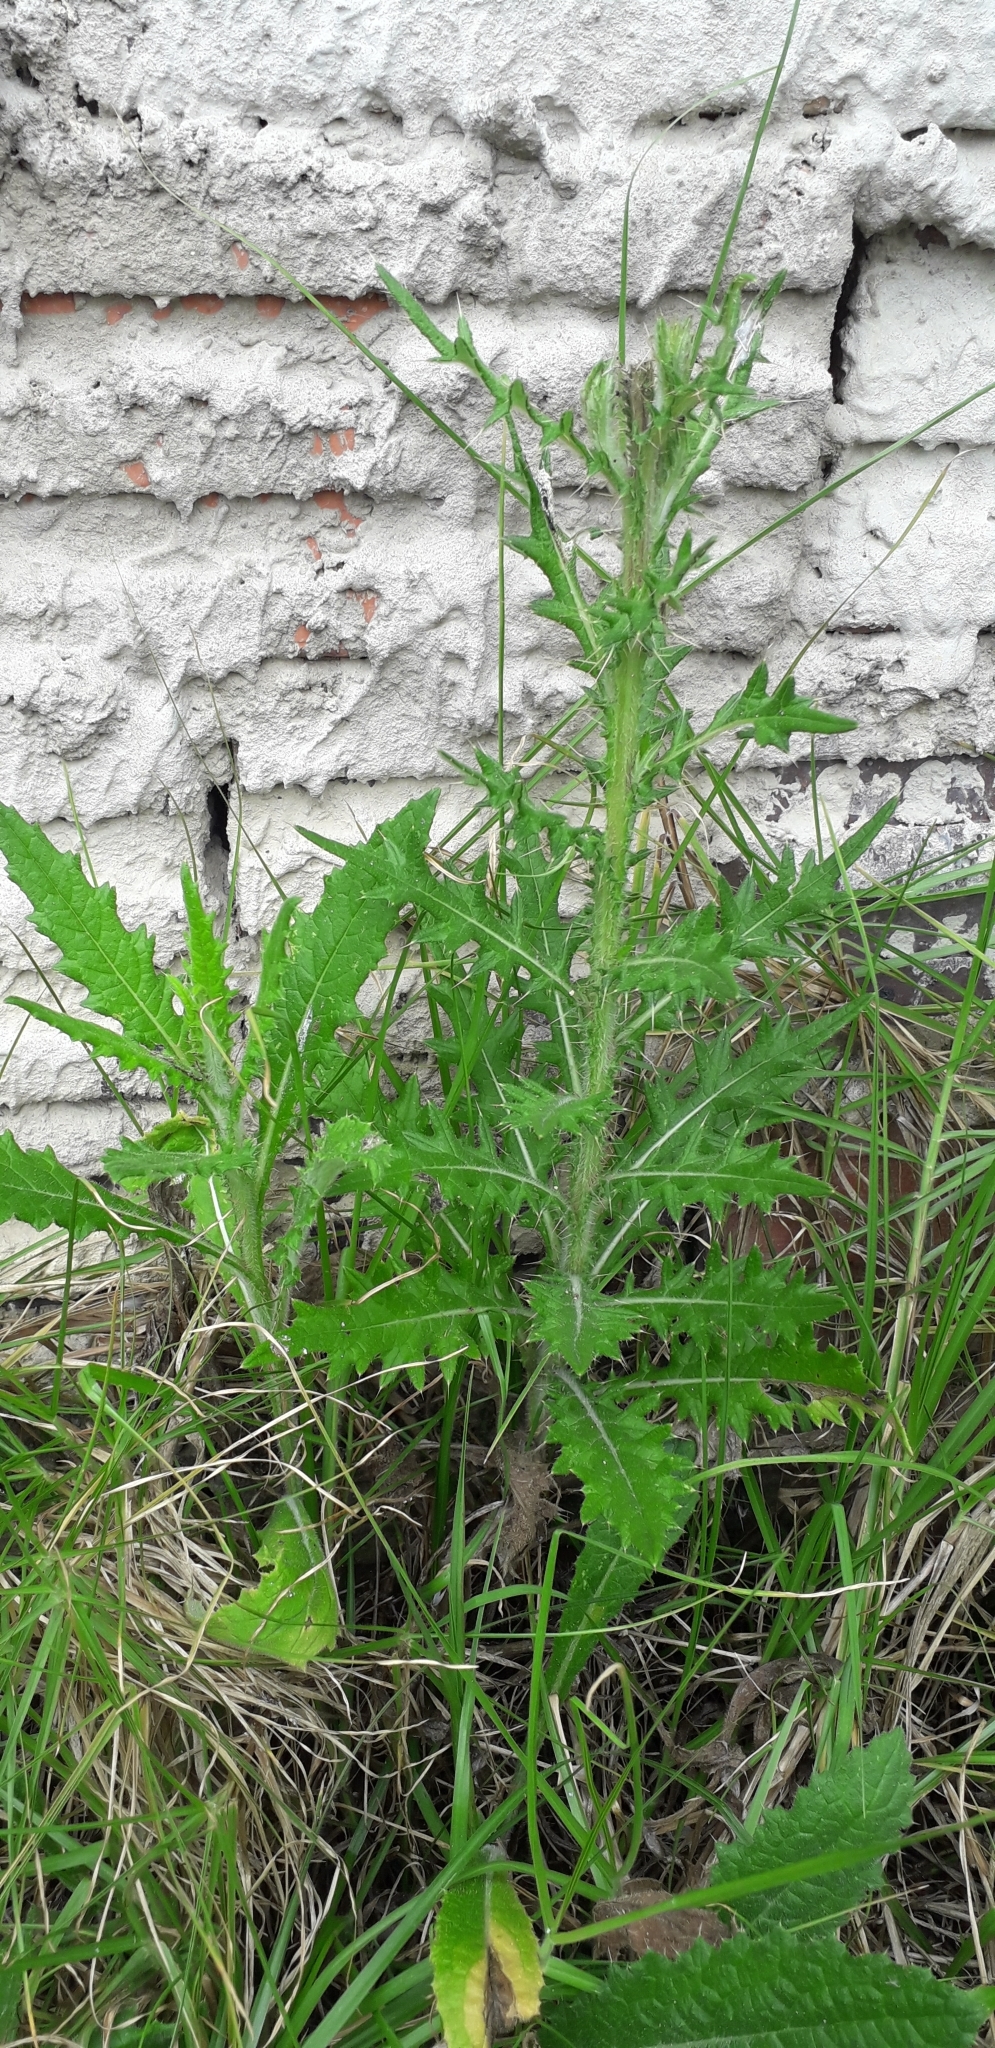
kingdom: Plantae
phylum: Tracheophyta
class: Magnoliopsida
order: Asterales
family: Asteraceae
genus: Cirsium
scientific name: Cirsium vulgare
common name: Bull thistle
